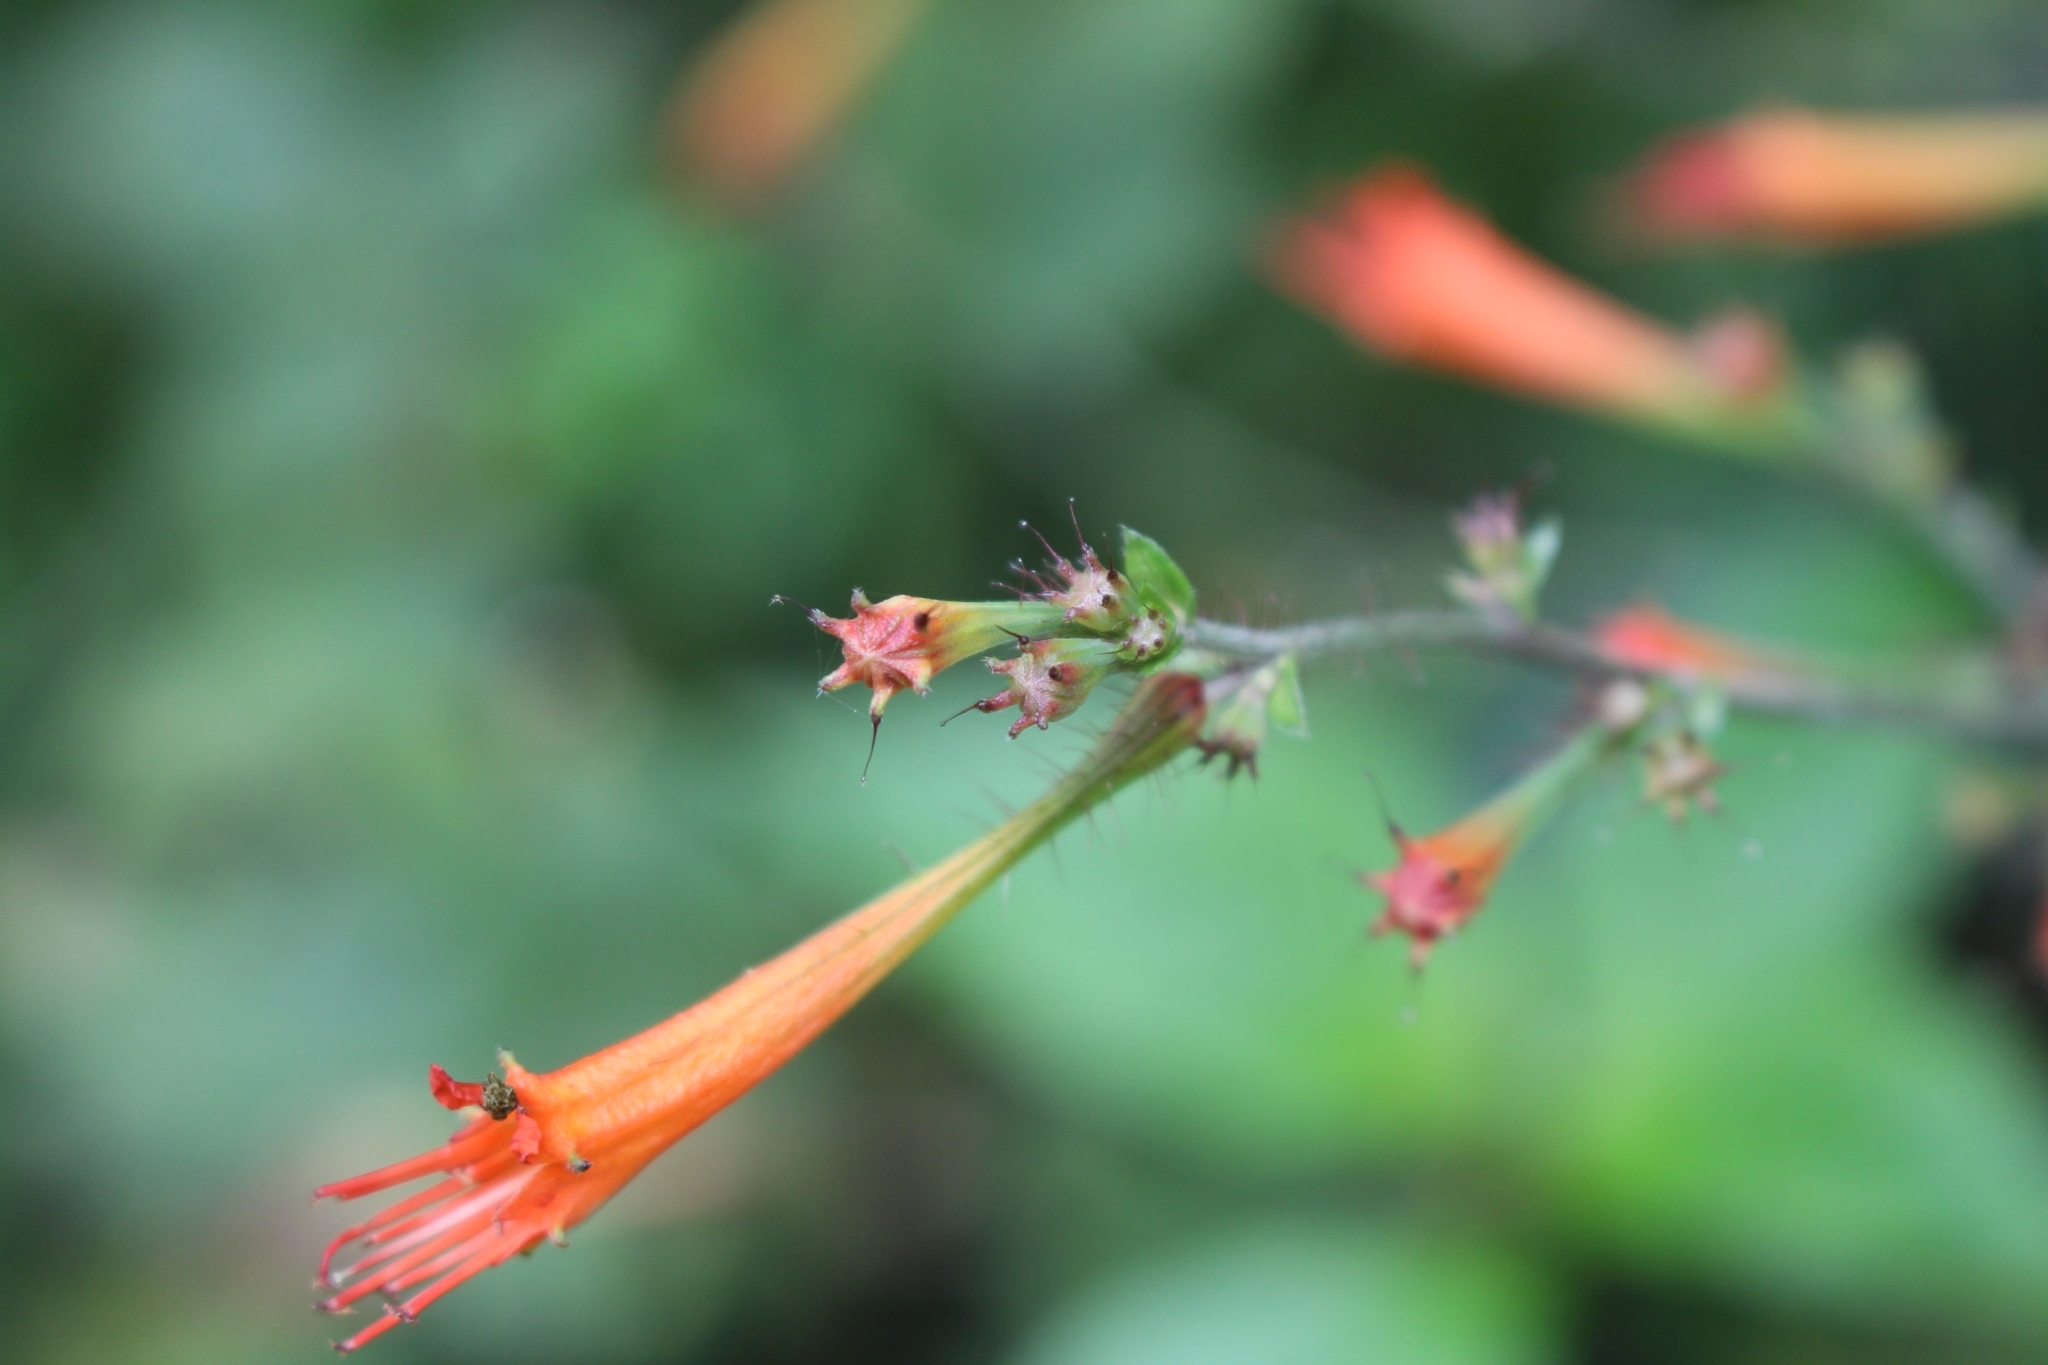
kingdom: Plantae
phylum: Tracheophyta
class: Magnoliopsida
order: Myrtales
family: Lythraceae
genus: Cuphea
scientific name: Cuphea appendiculata
